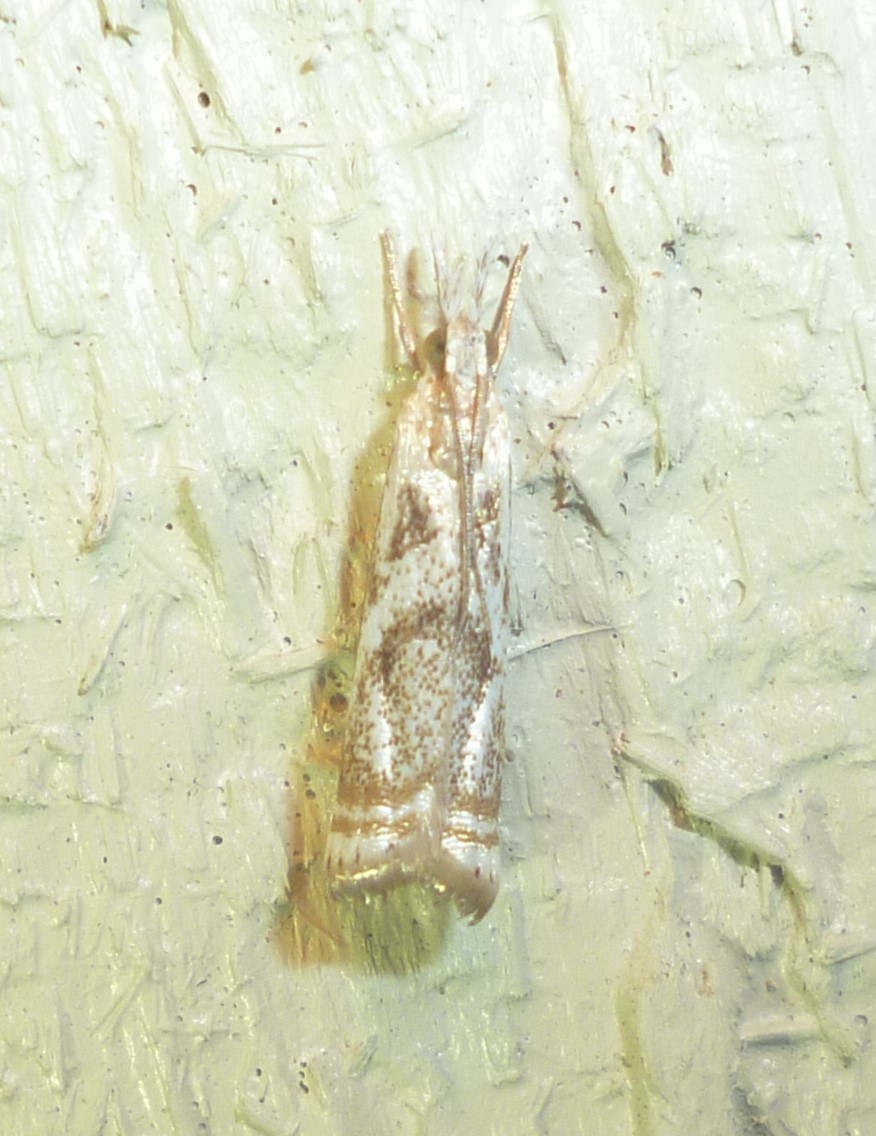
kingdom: Animalia
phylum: Arthropoda
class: Insecta
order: Lepidoptera
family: Crambidae
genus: Microcrambus
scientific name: Microcrambus elegans
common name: Elegant grass-veneer
